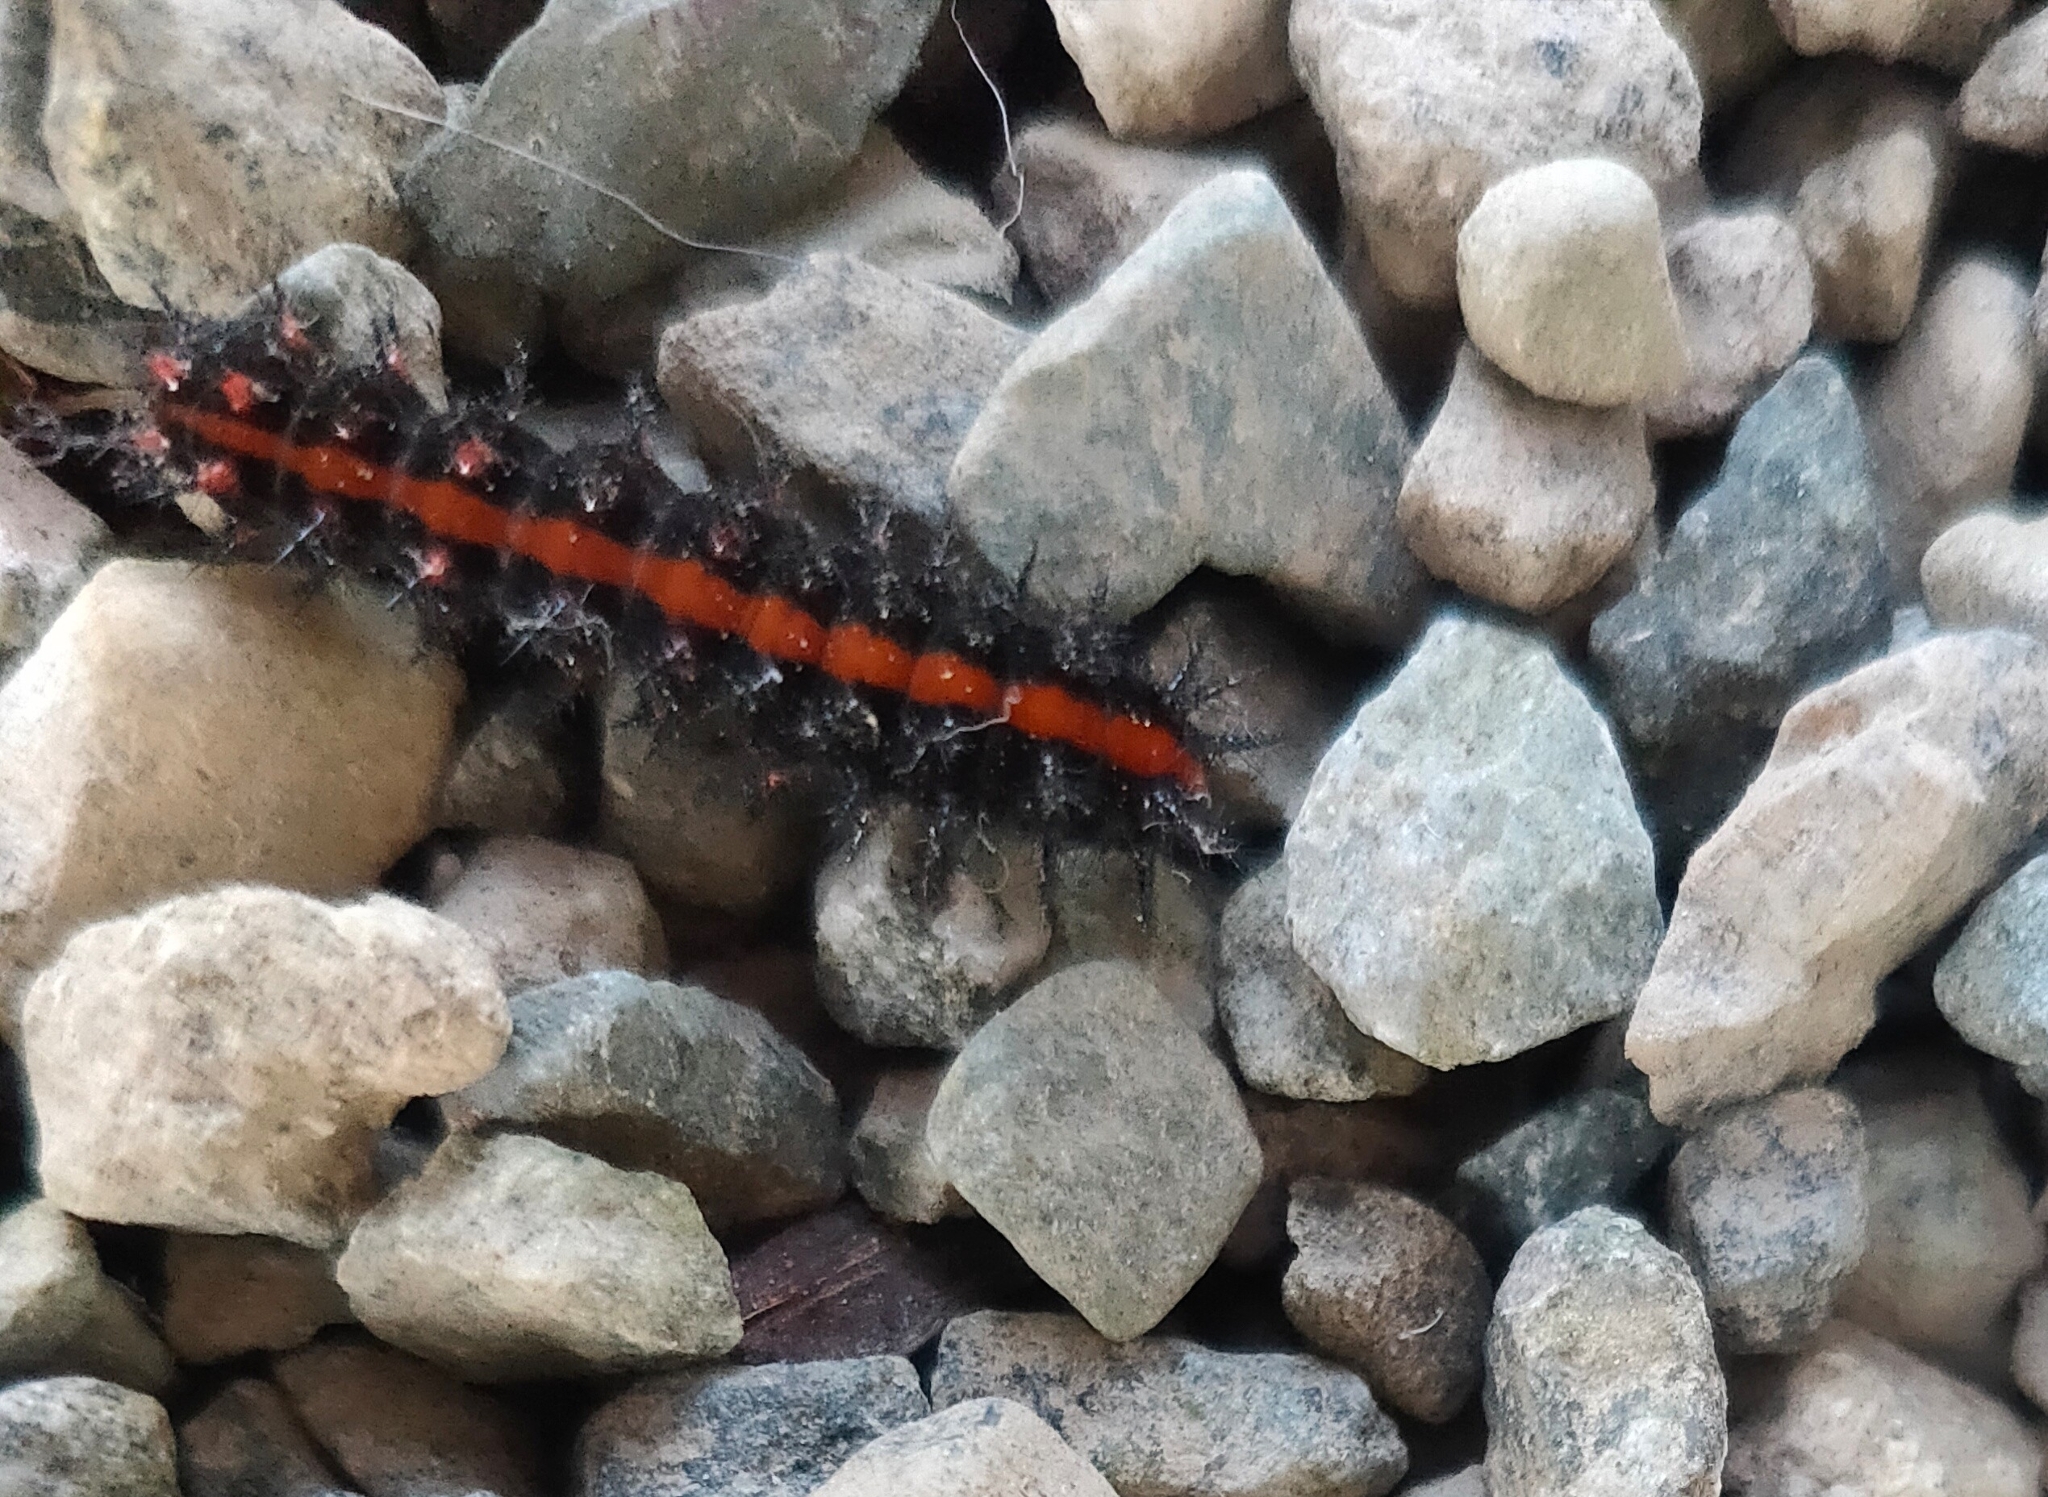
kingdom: Animalia
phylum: Arthropoda
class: Insecta
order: Lepidoptera
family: Nymphalidae
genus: Argynnis
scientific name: Argynnis hyperbius
